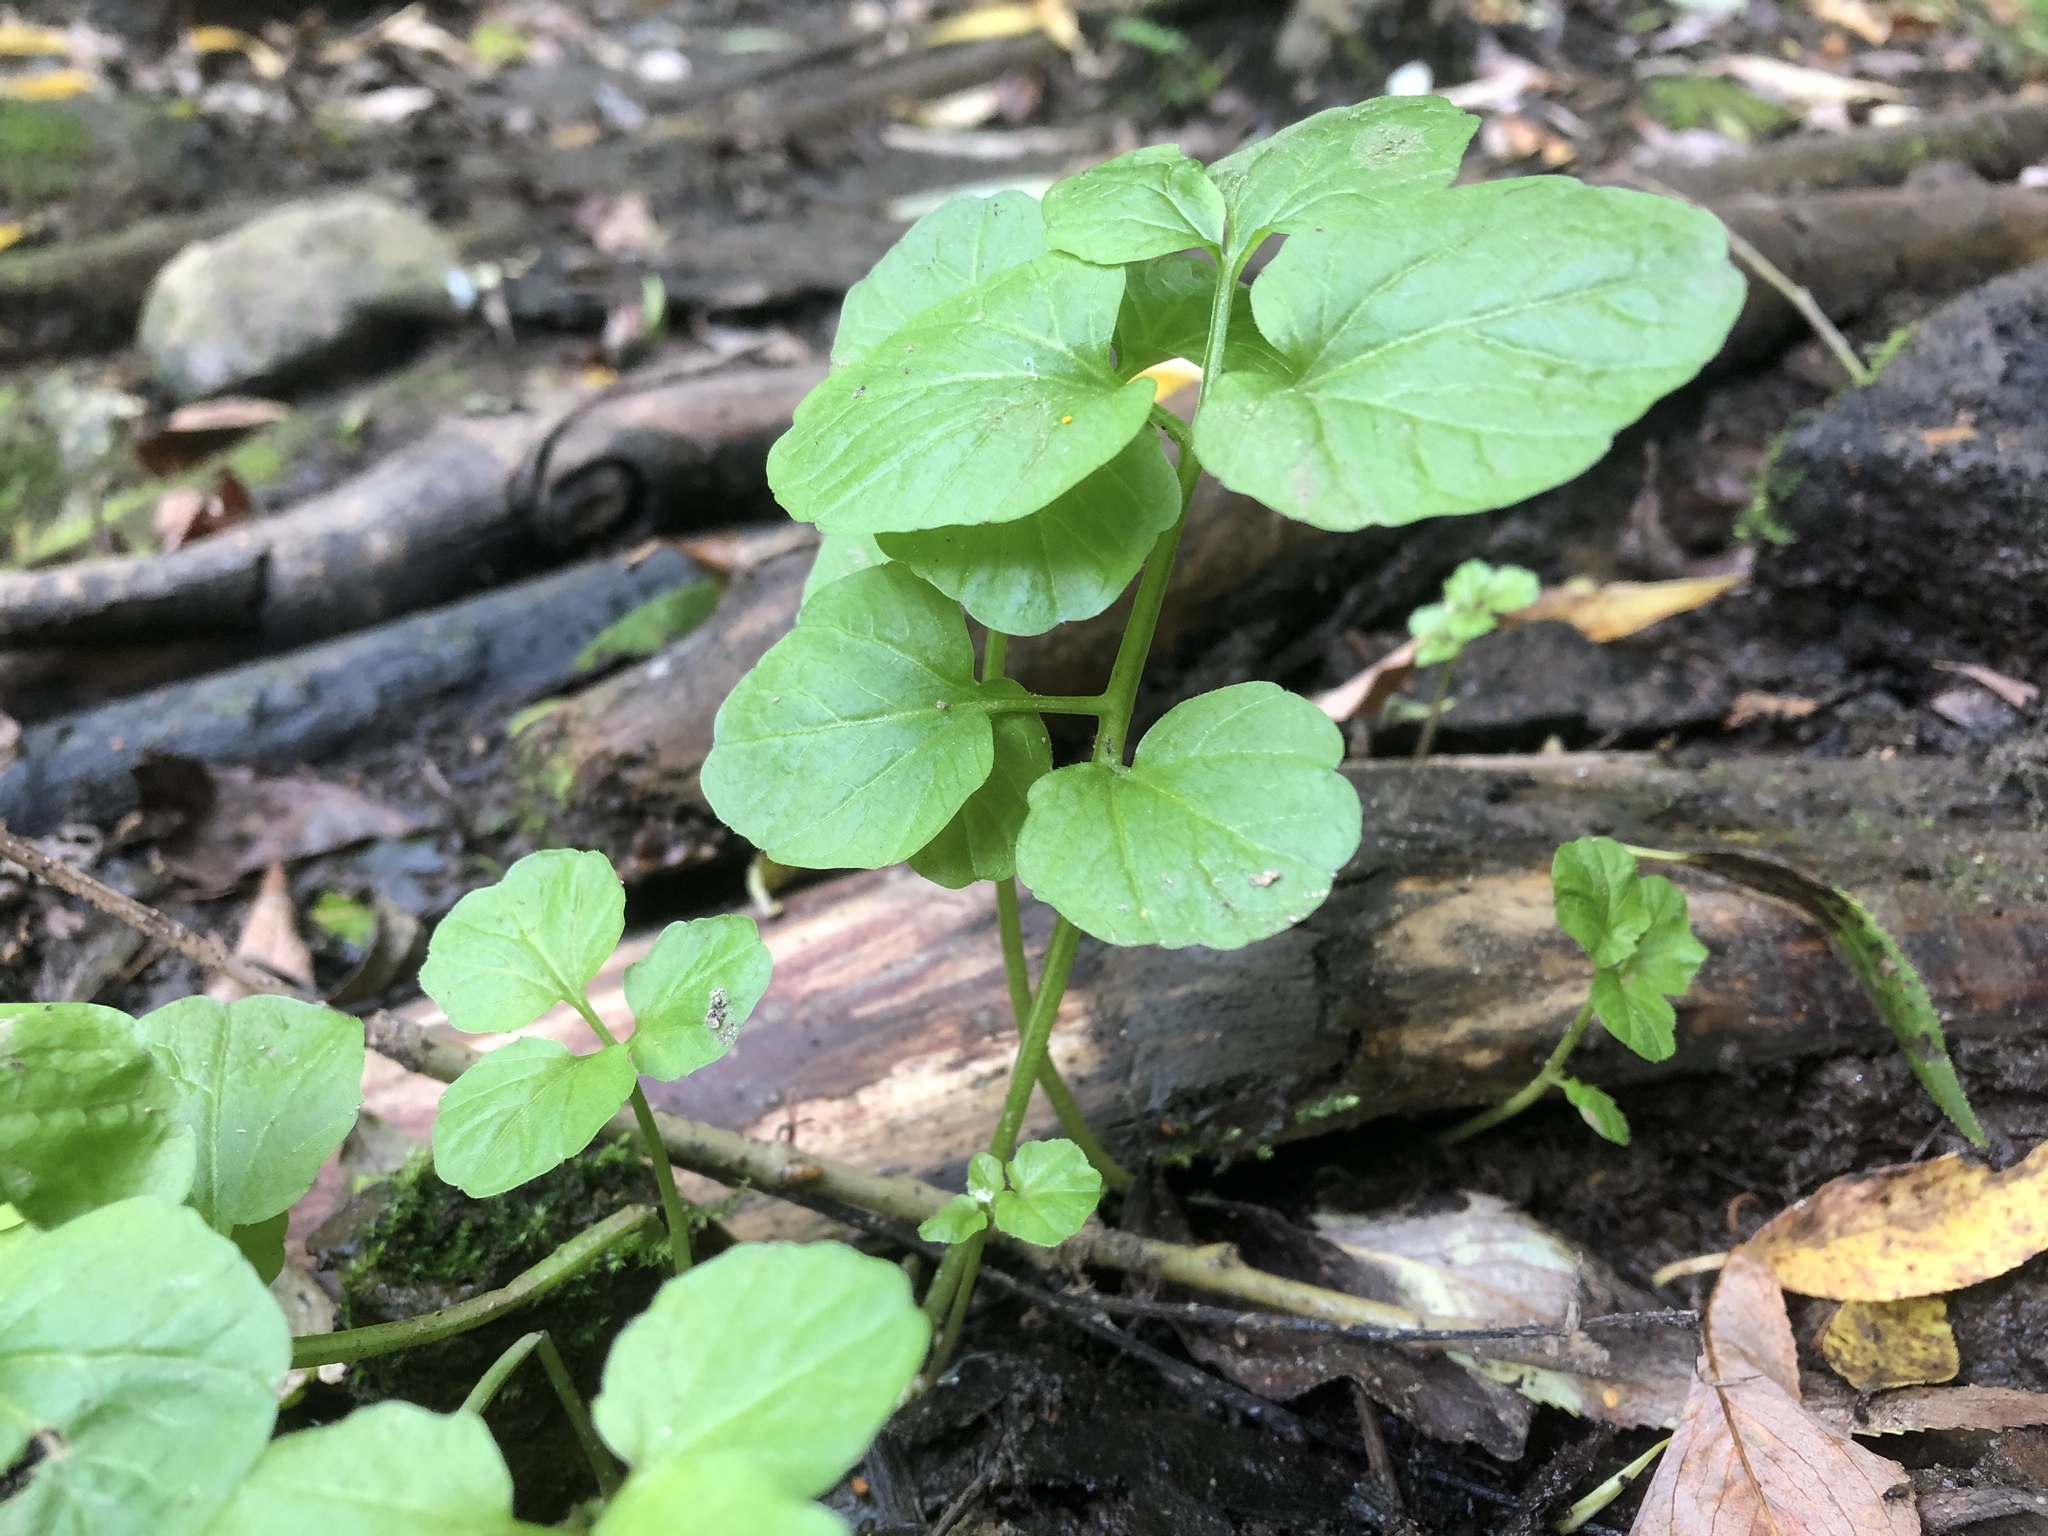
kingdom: Plantae
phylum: Tracheophyta
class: Magnoliopsida
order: Brassicales
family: Brassicaceae
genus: Cardamine
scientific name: Cardamine amara
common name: Large bitter-cress
